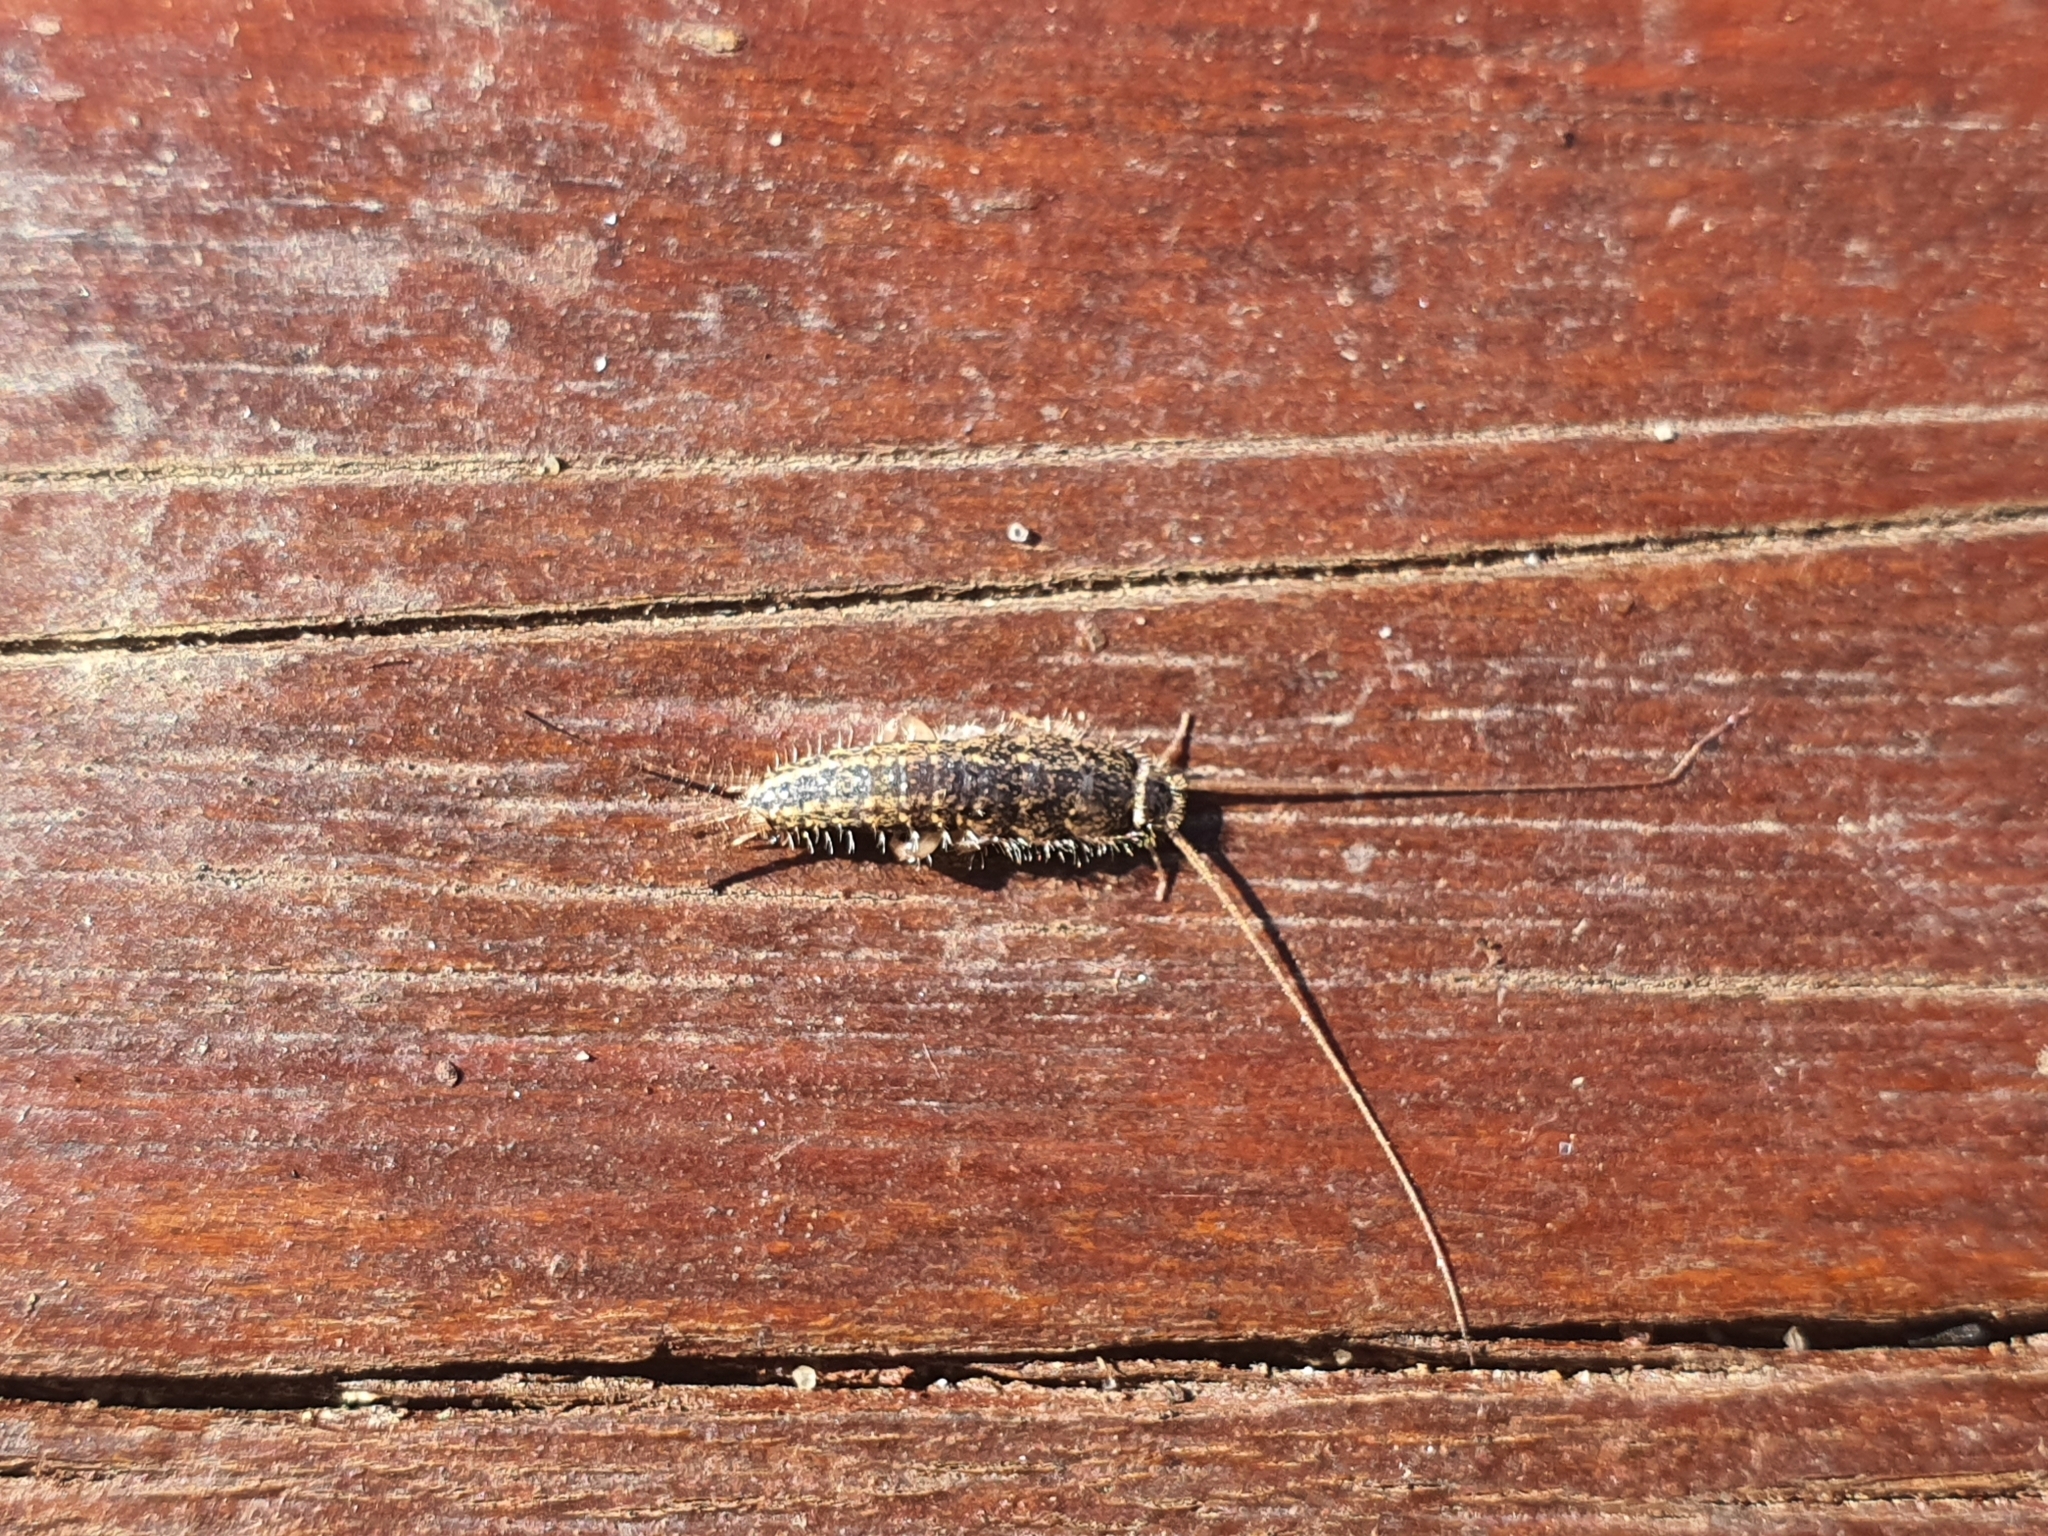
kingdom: Animalia
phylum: Arthropoda
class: Insecta
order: Zygentoma
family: Lepismatidae
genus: Ctenolepisma
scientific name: Ctenolepisma lineata
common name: Four-lined silverfish
